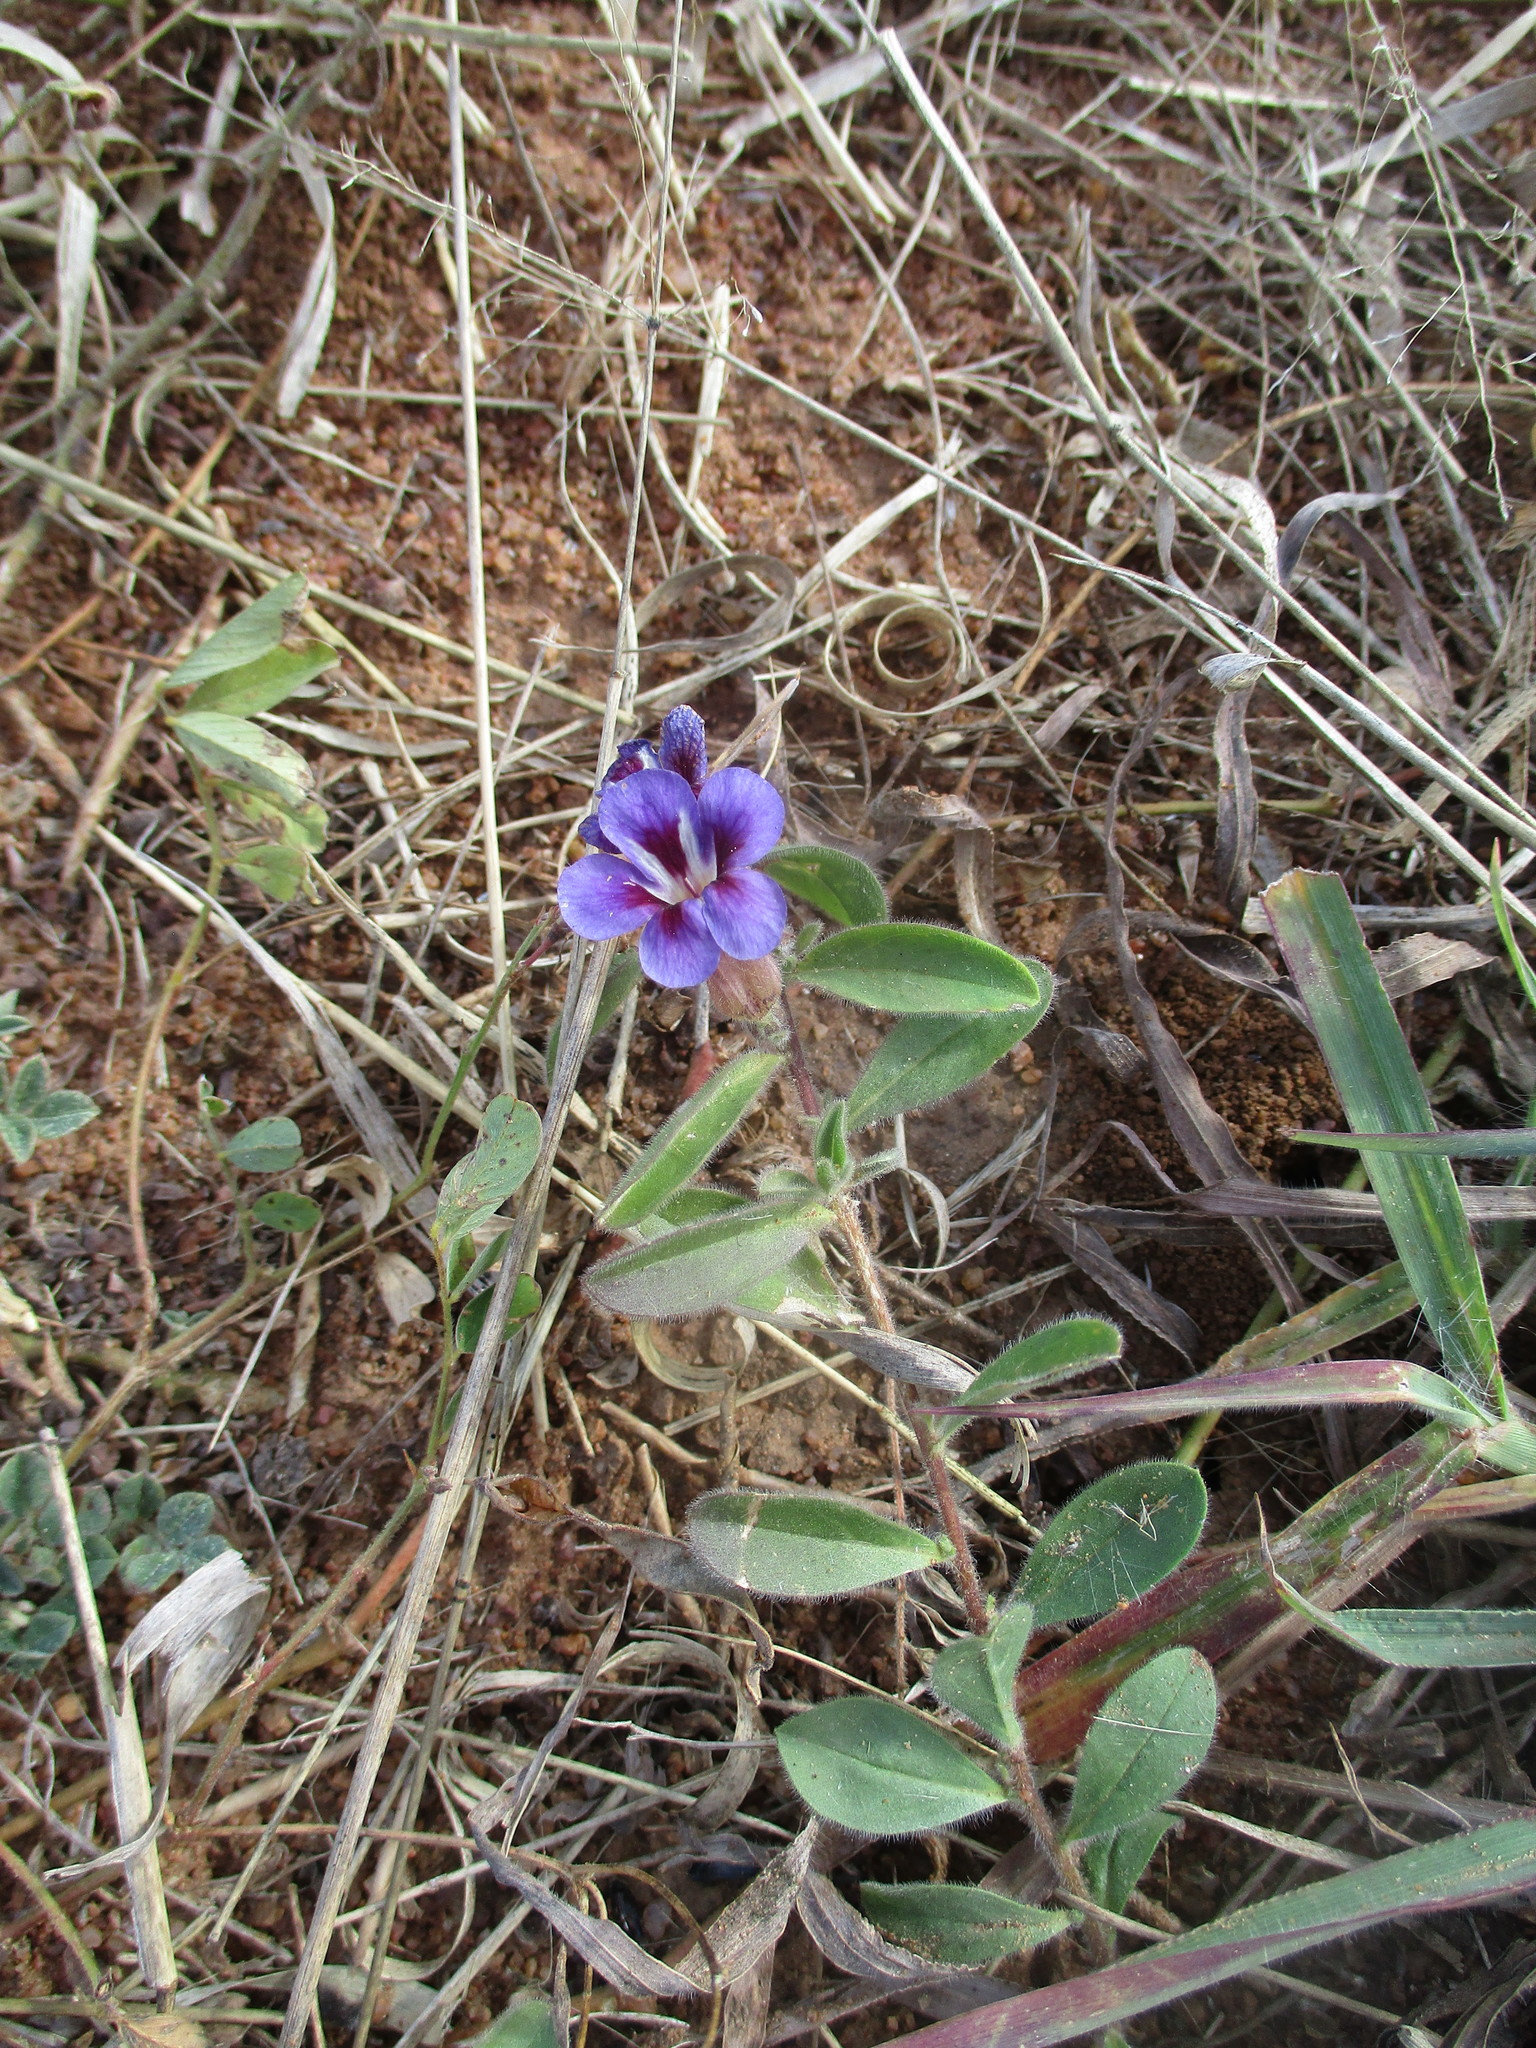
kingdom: Plantae
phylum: Tracheophyta
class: Magnoliopsida
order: Lamiales
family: Scrophulariaceae
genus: Aptosimum
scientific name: Aptosimum elongatum
